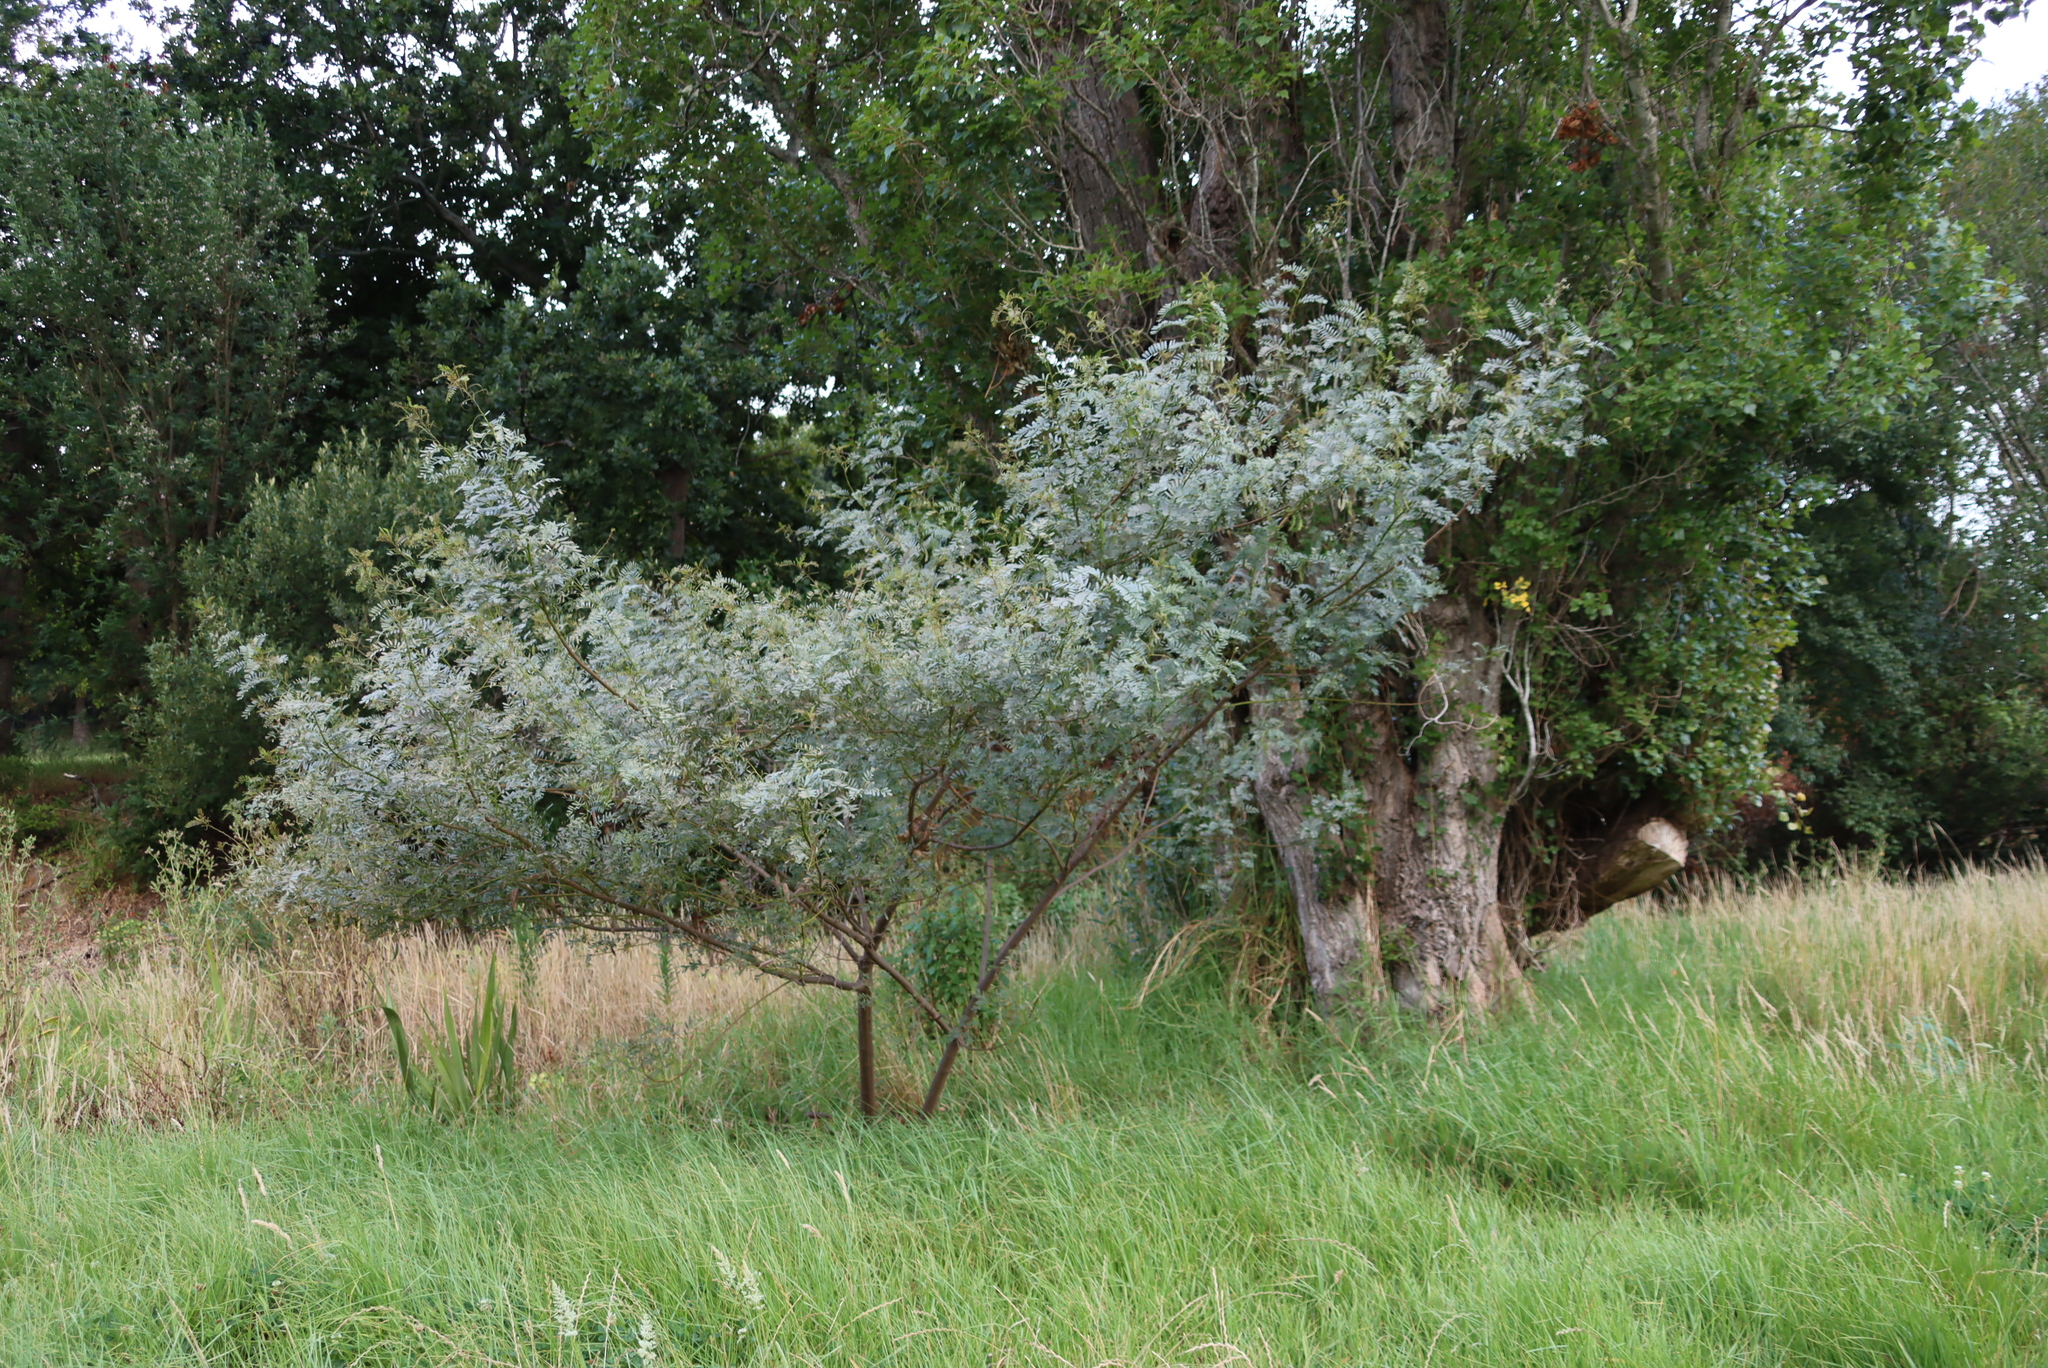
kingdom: Plantae
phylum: Tracheophyta
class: Magnoliopsida
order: Fabales
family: Fabaceae
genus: Sesbania
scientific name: Sesbania punicea
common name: Rattlebox
